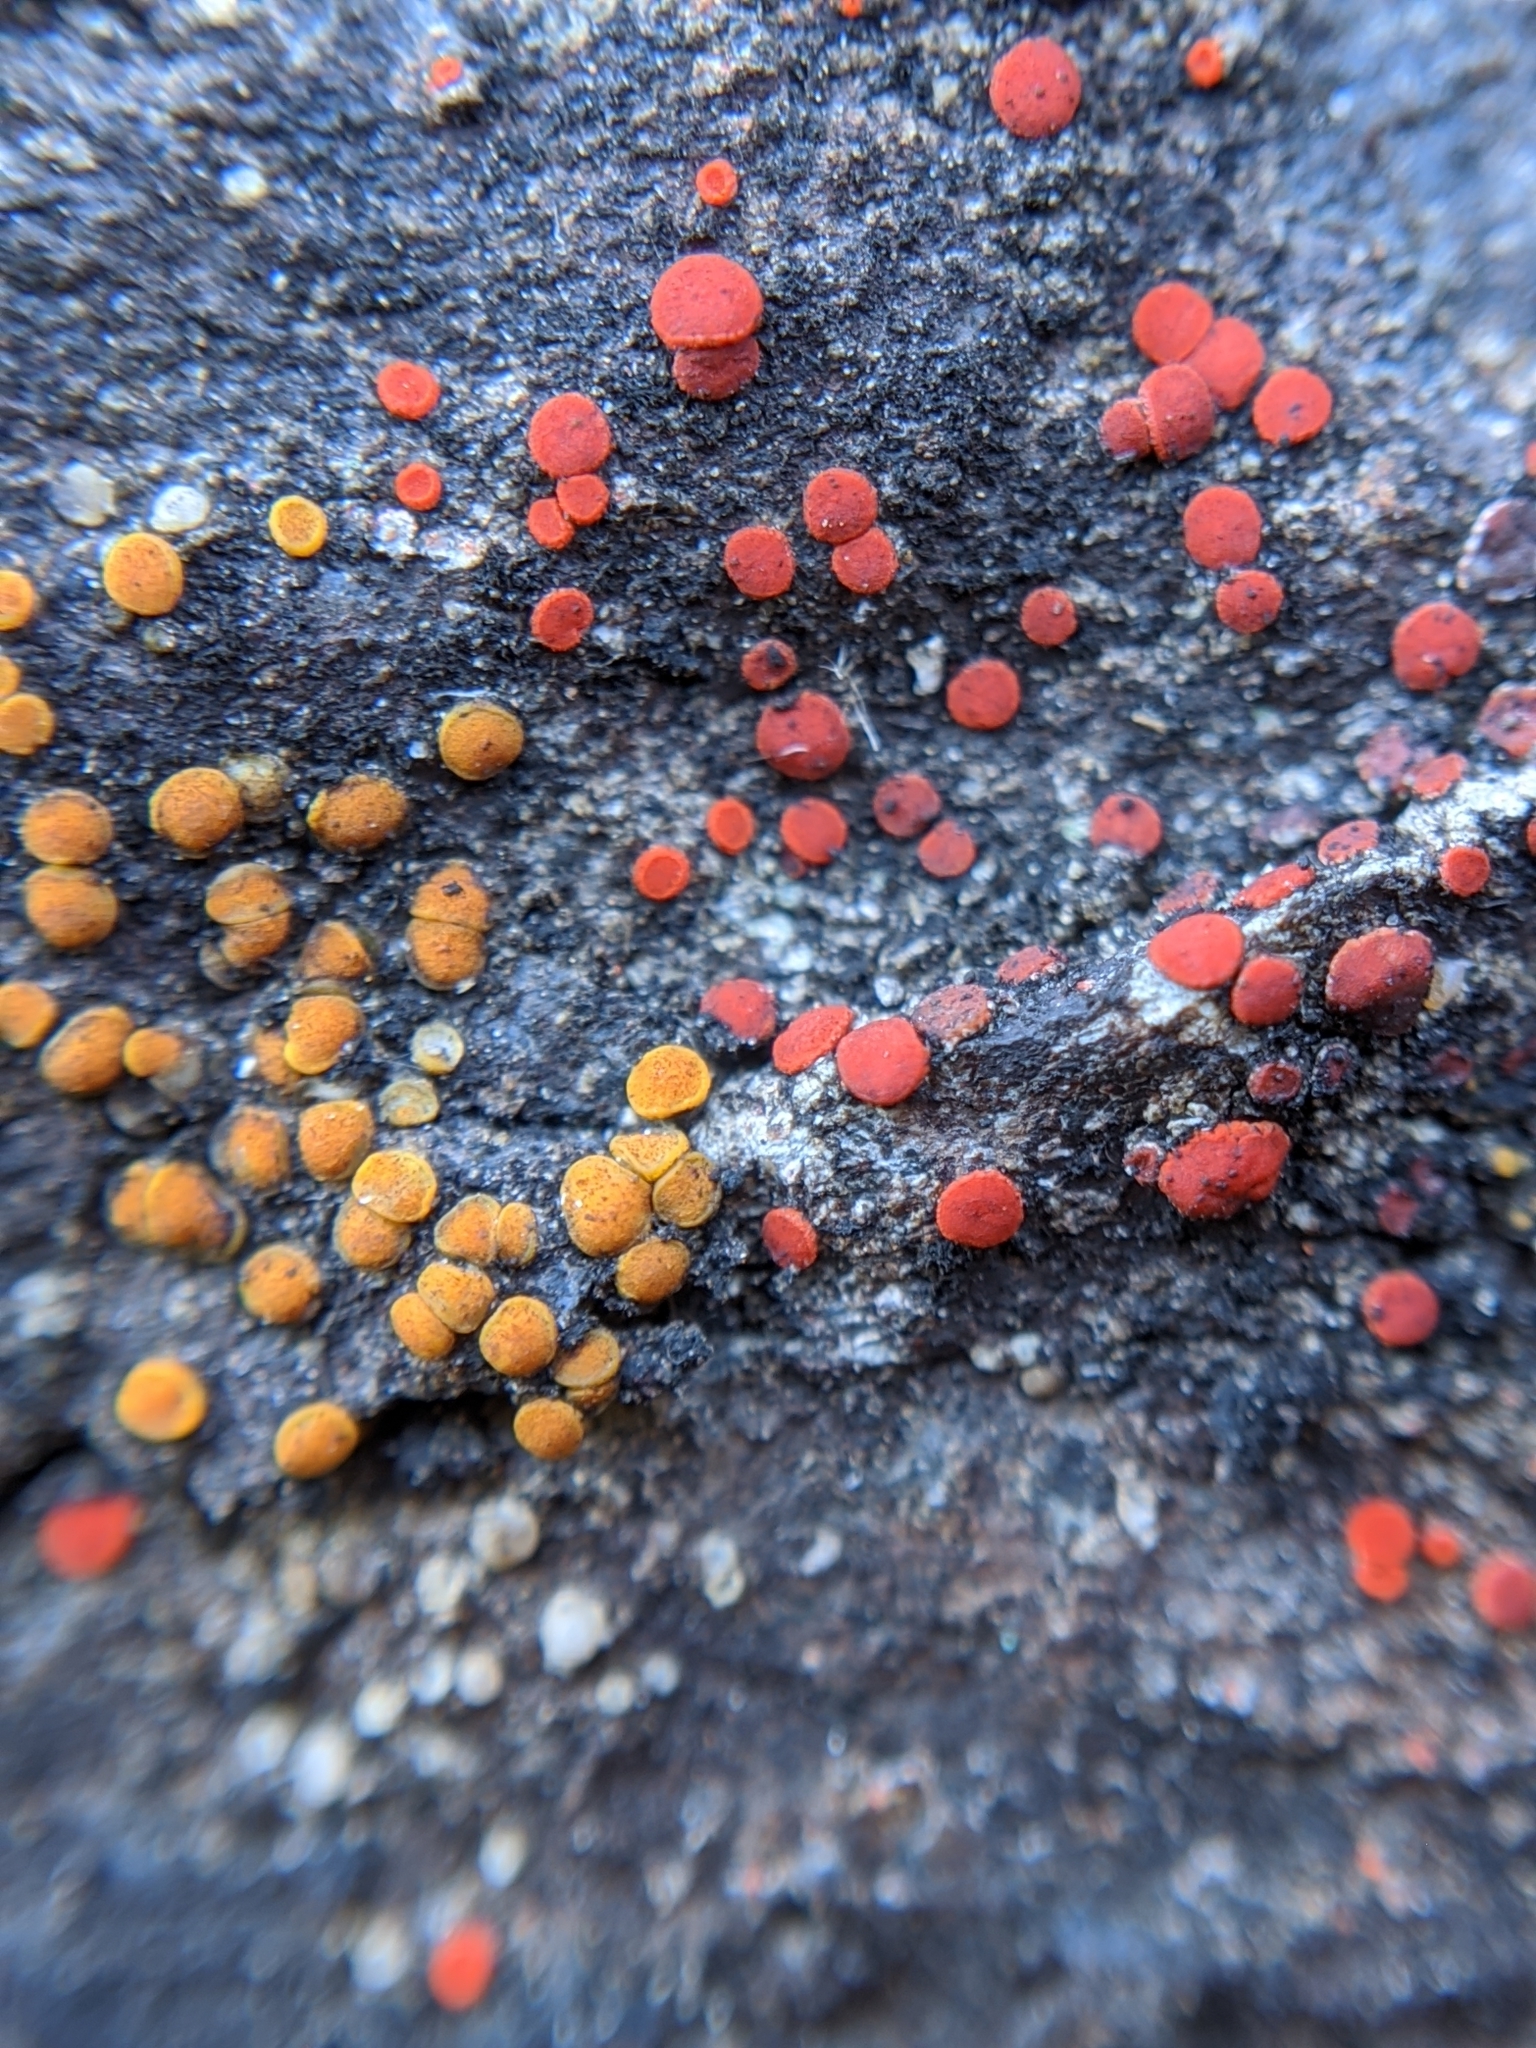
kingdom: Fungi
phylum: Ascomycota
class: Lecanoromycetes
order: Teloschistales
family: Teloschistaceae
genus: Tomnashia
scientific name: Tomnashia luteominia
